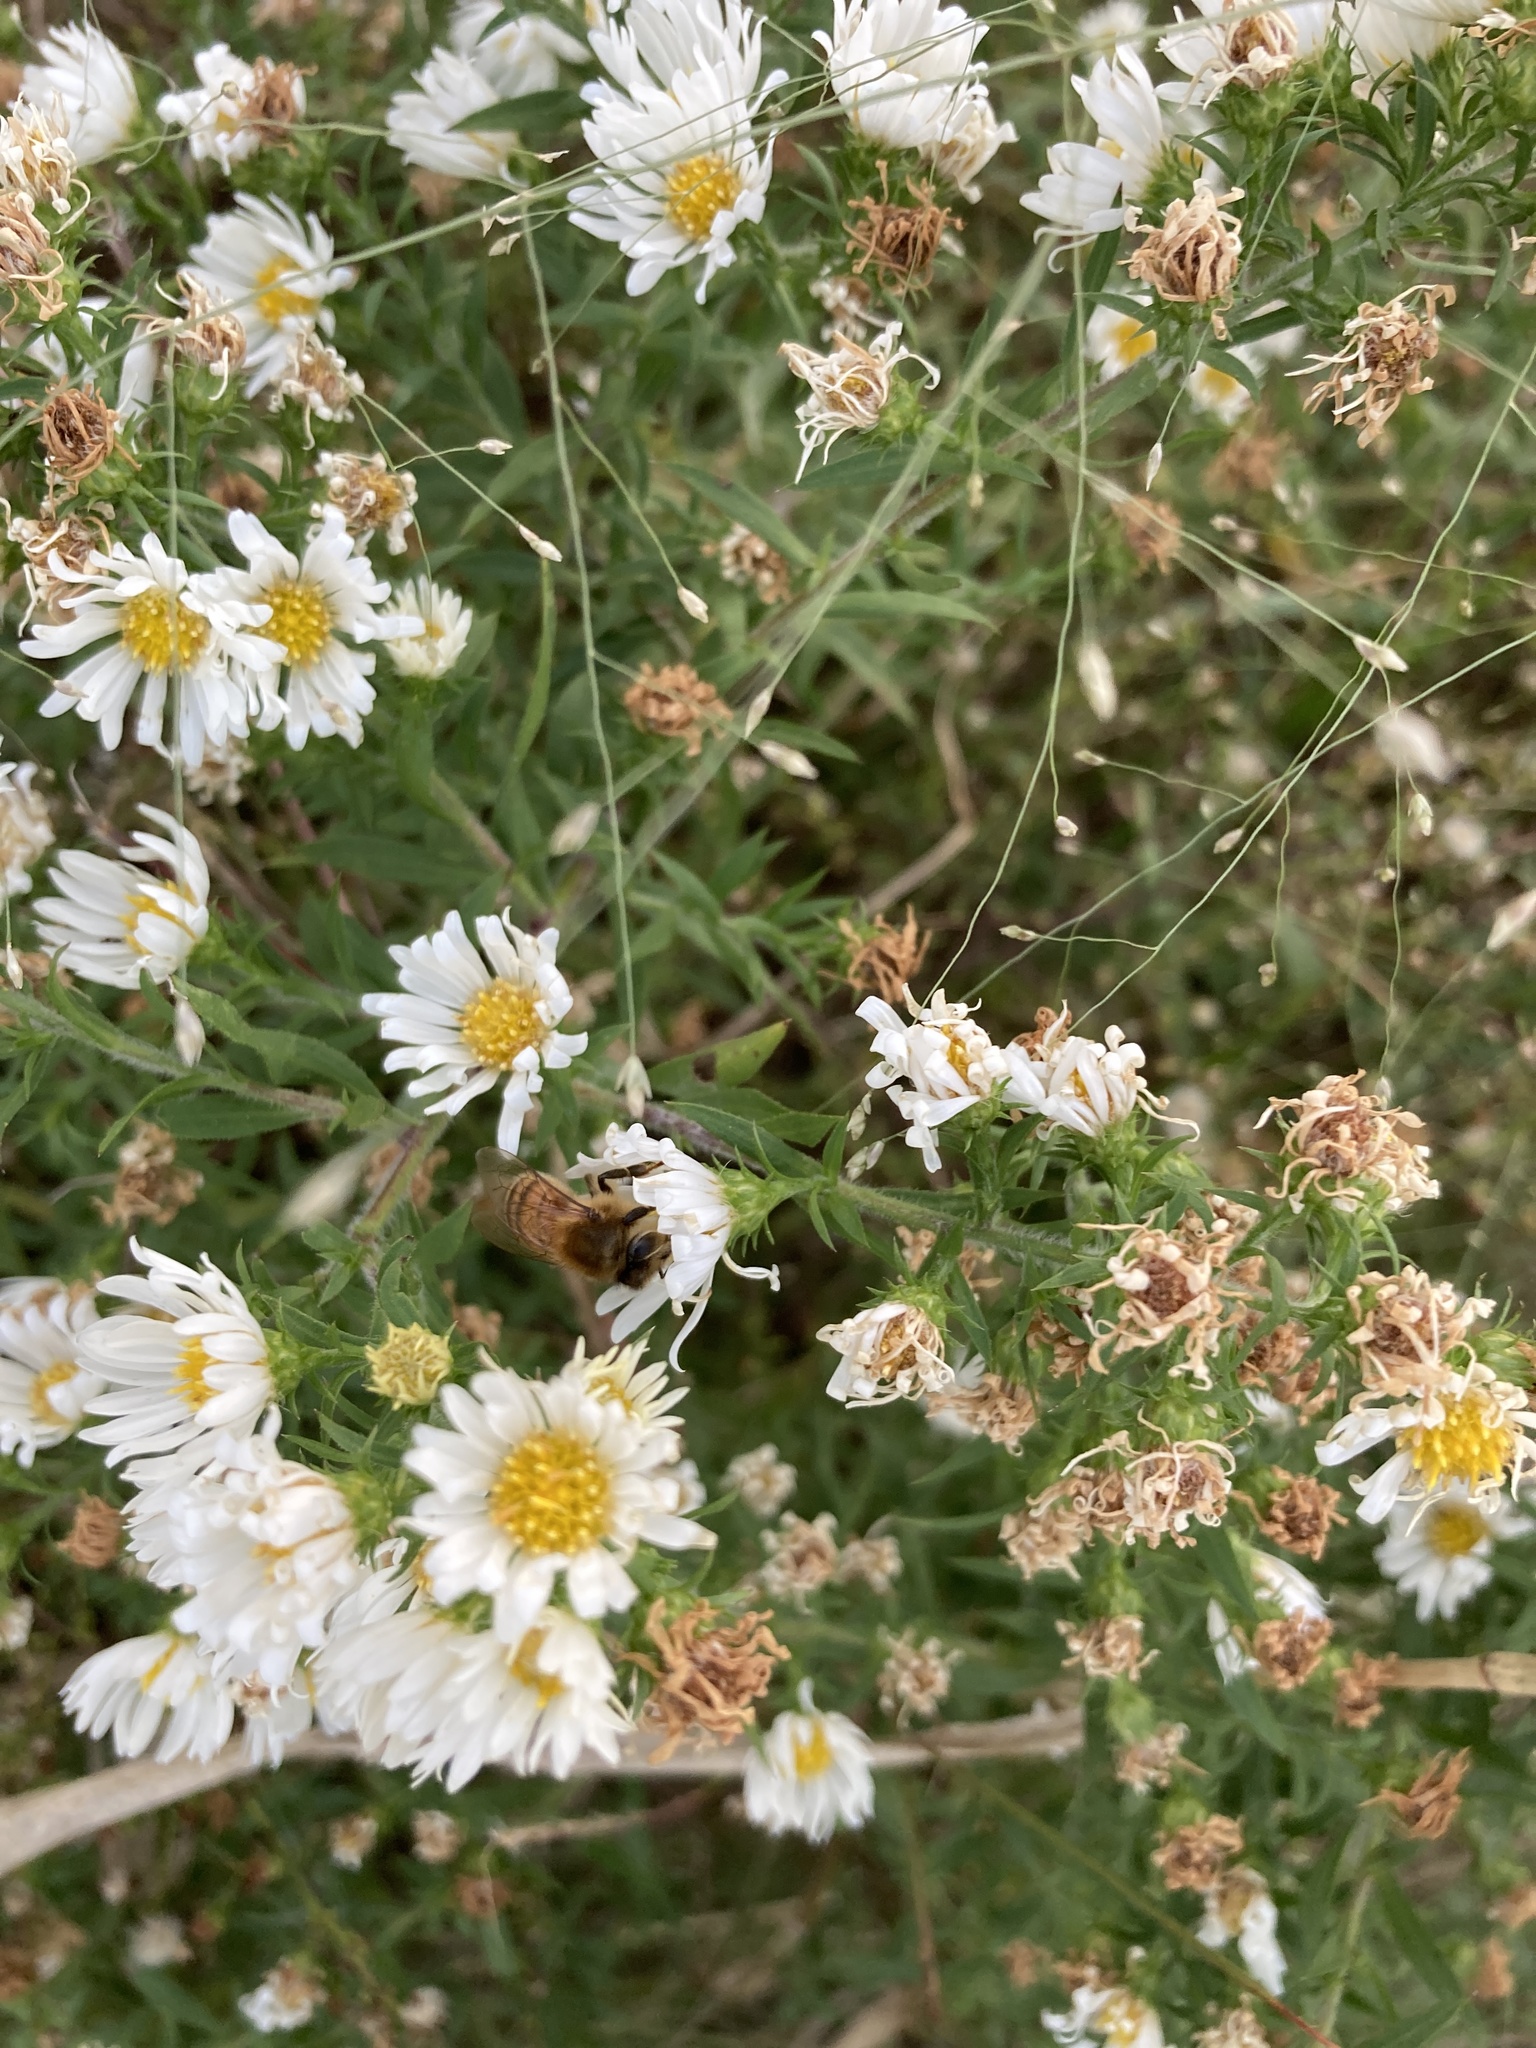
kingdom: Animalia
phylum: Arthropoda
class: Insecta
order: Hymenoptera
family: Apidae
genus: Apis
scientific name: Apis mellifera
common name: Honey bee
